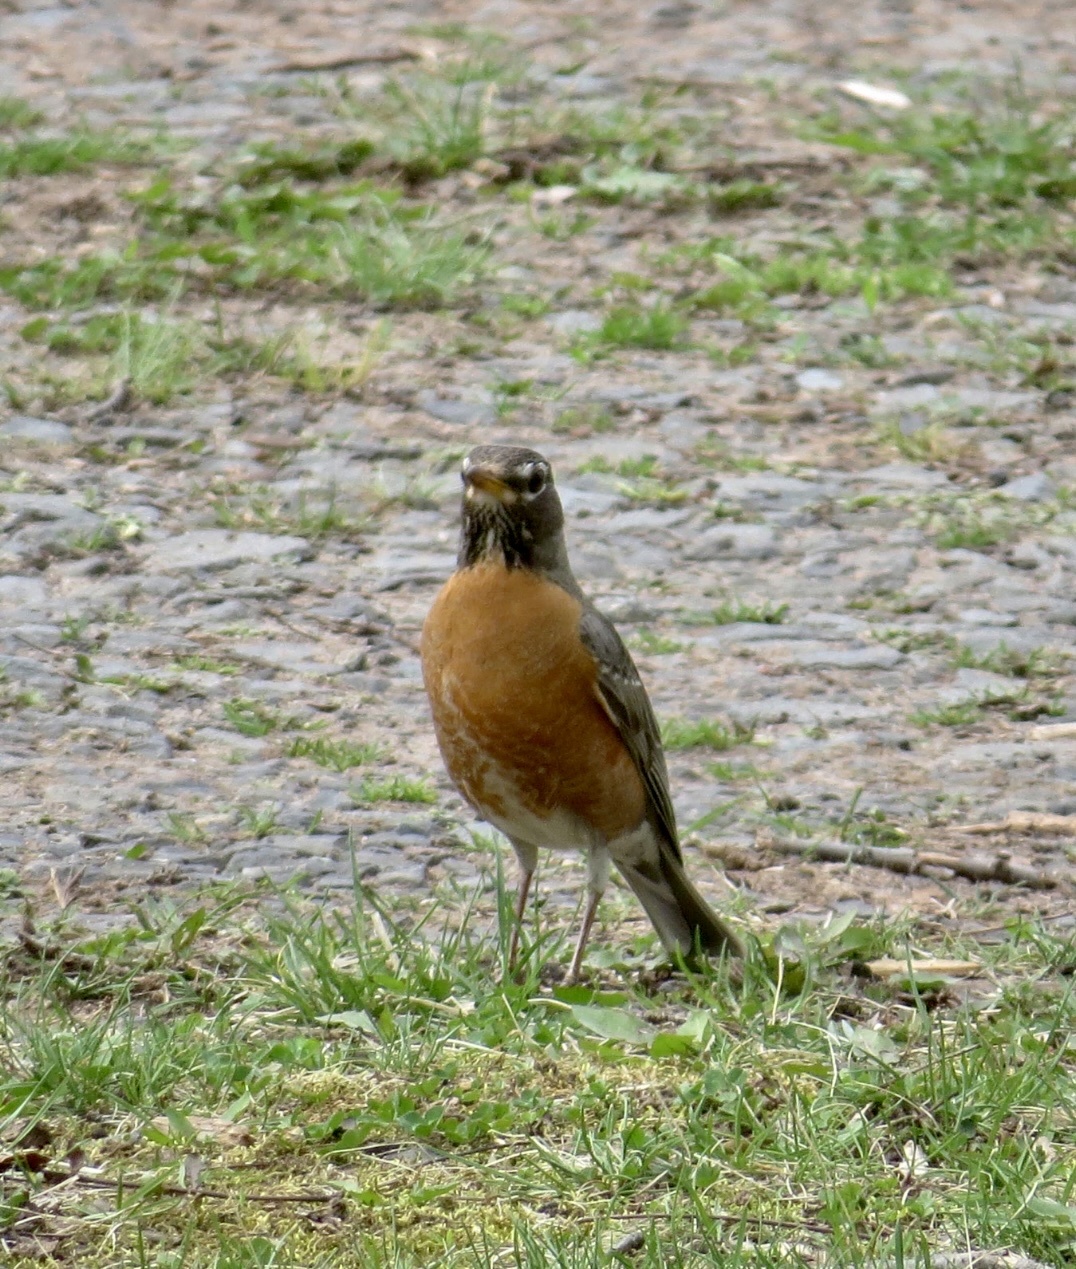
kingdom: Animalia
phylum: Chordata
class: Aves
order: Passeriformes
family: Turdidae
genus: Turdus
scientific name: Turdus migratorius
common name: American robin
